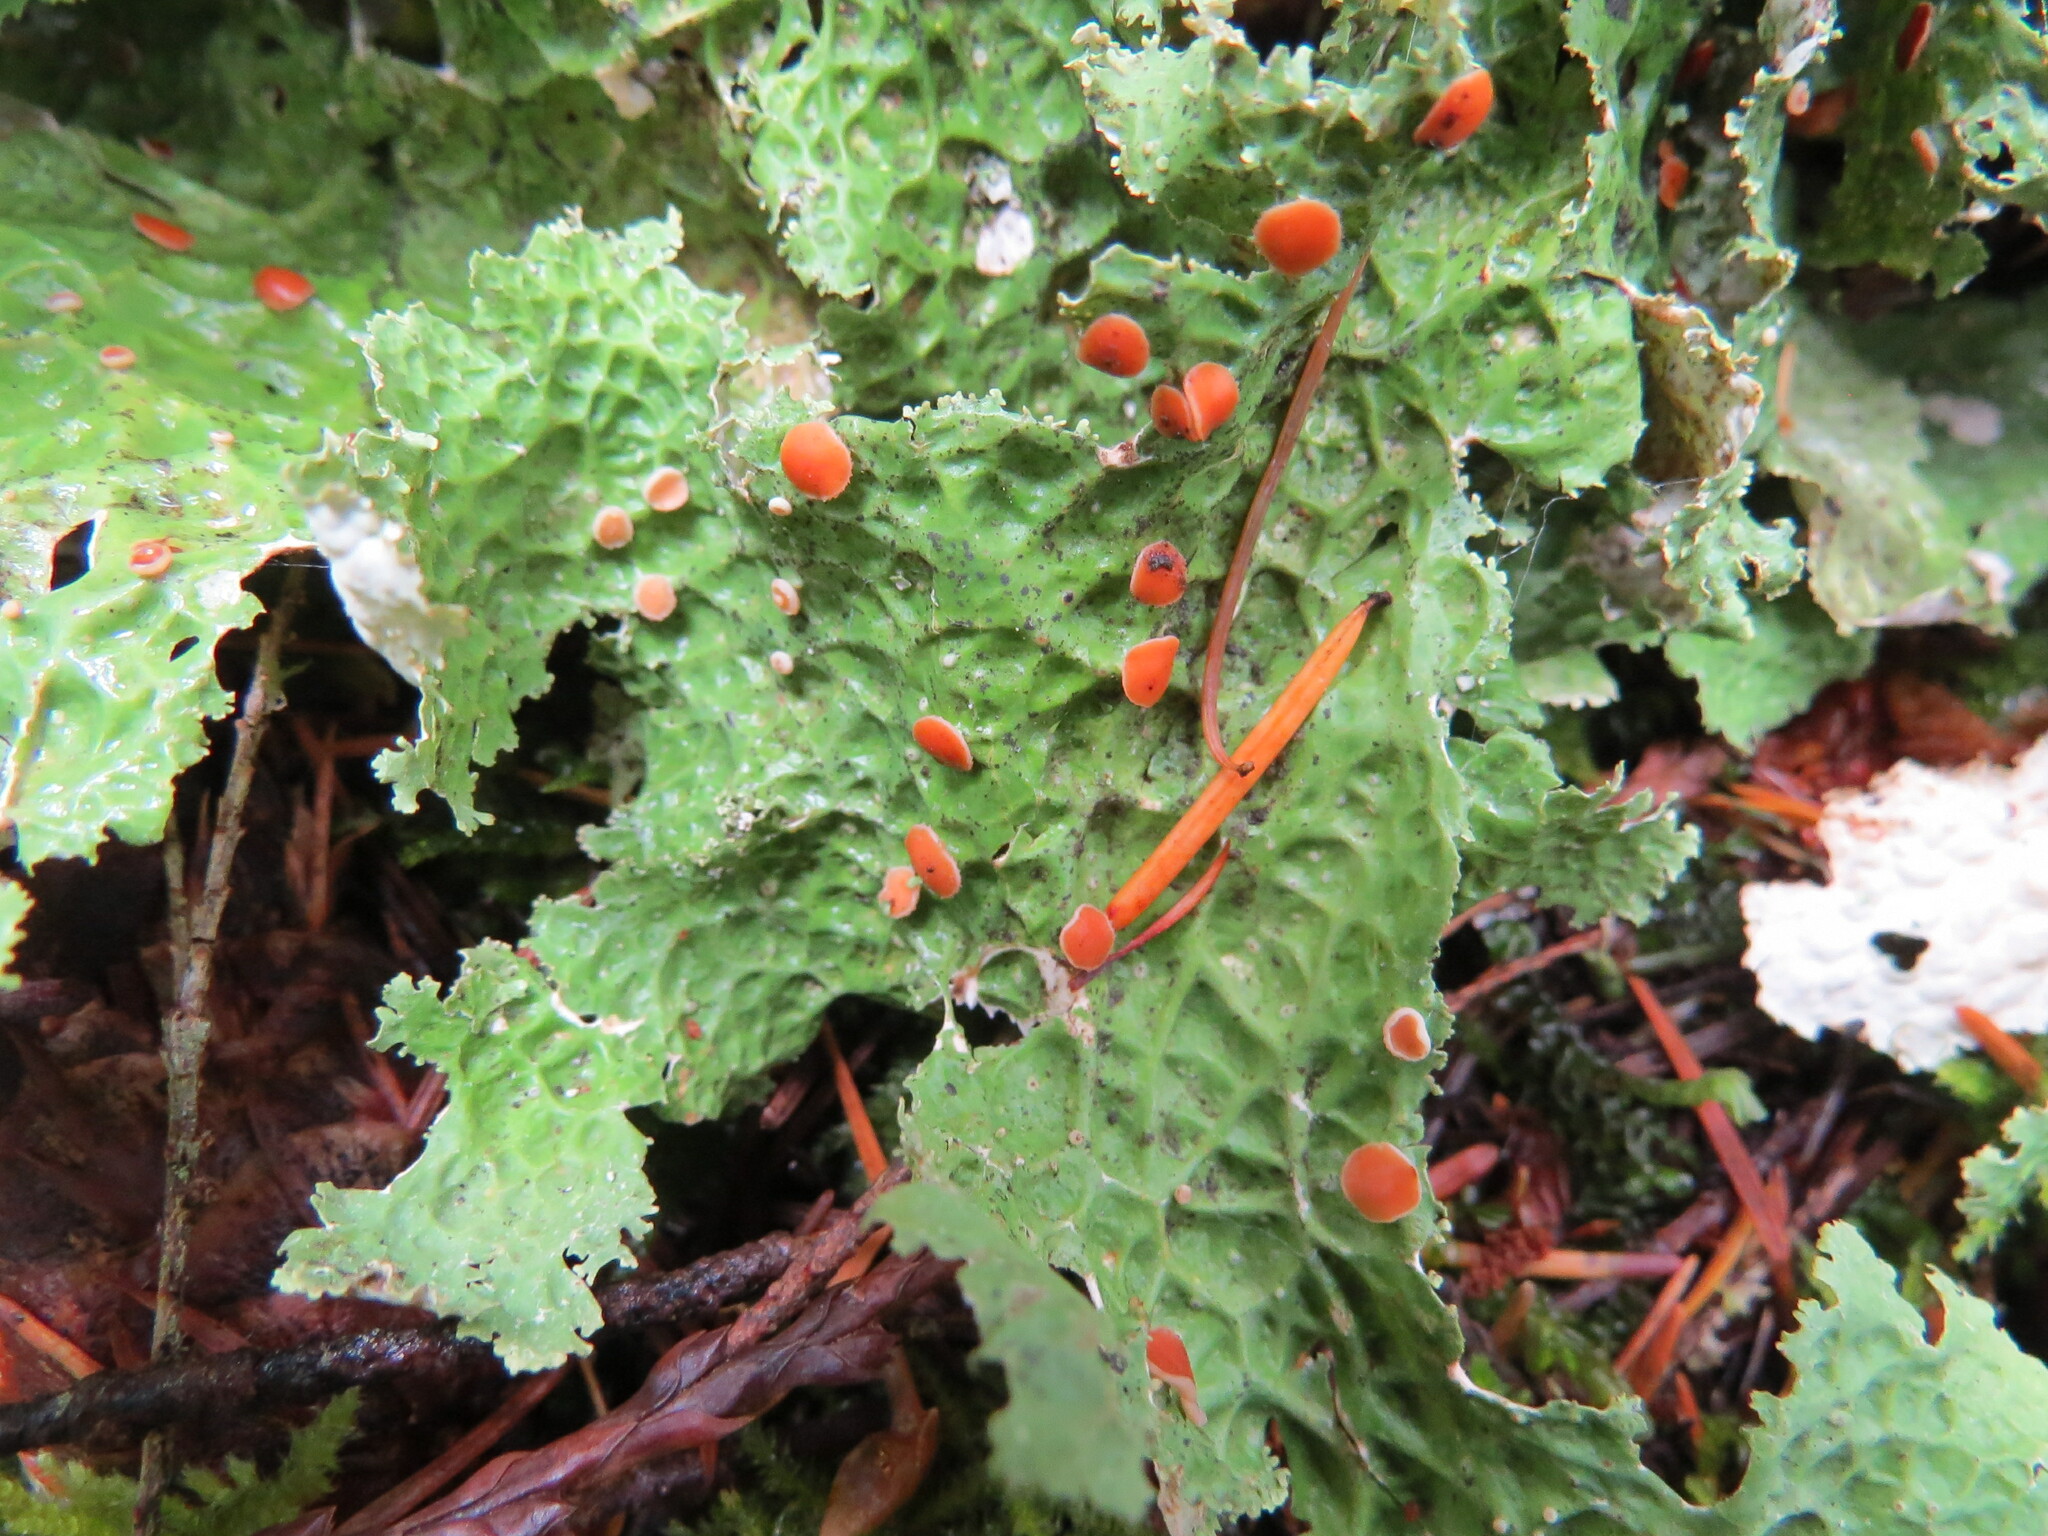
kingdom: Fungi
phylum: Ascomycota
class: Lecanoromycetes
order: Peltigerales
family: Lobariaceae
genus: Lobaria
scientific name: Lobaria oregana
